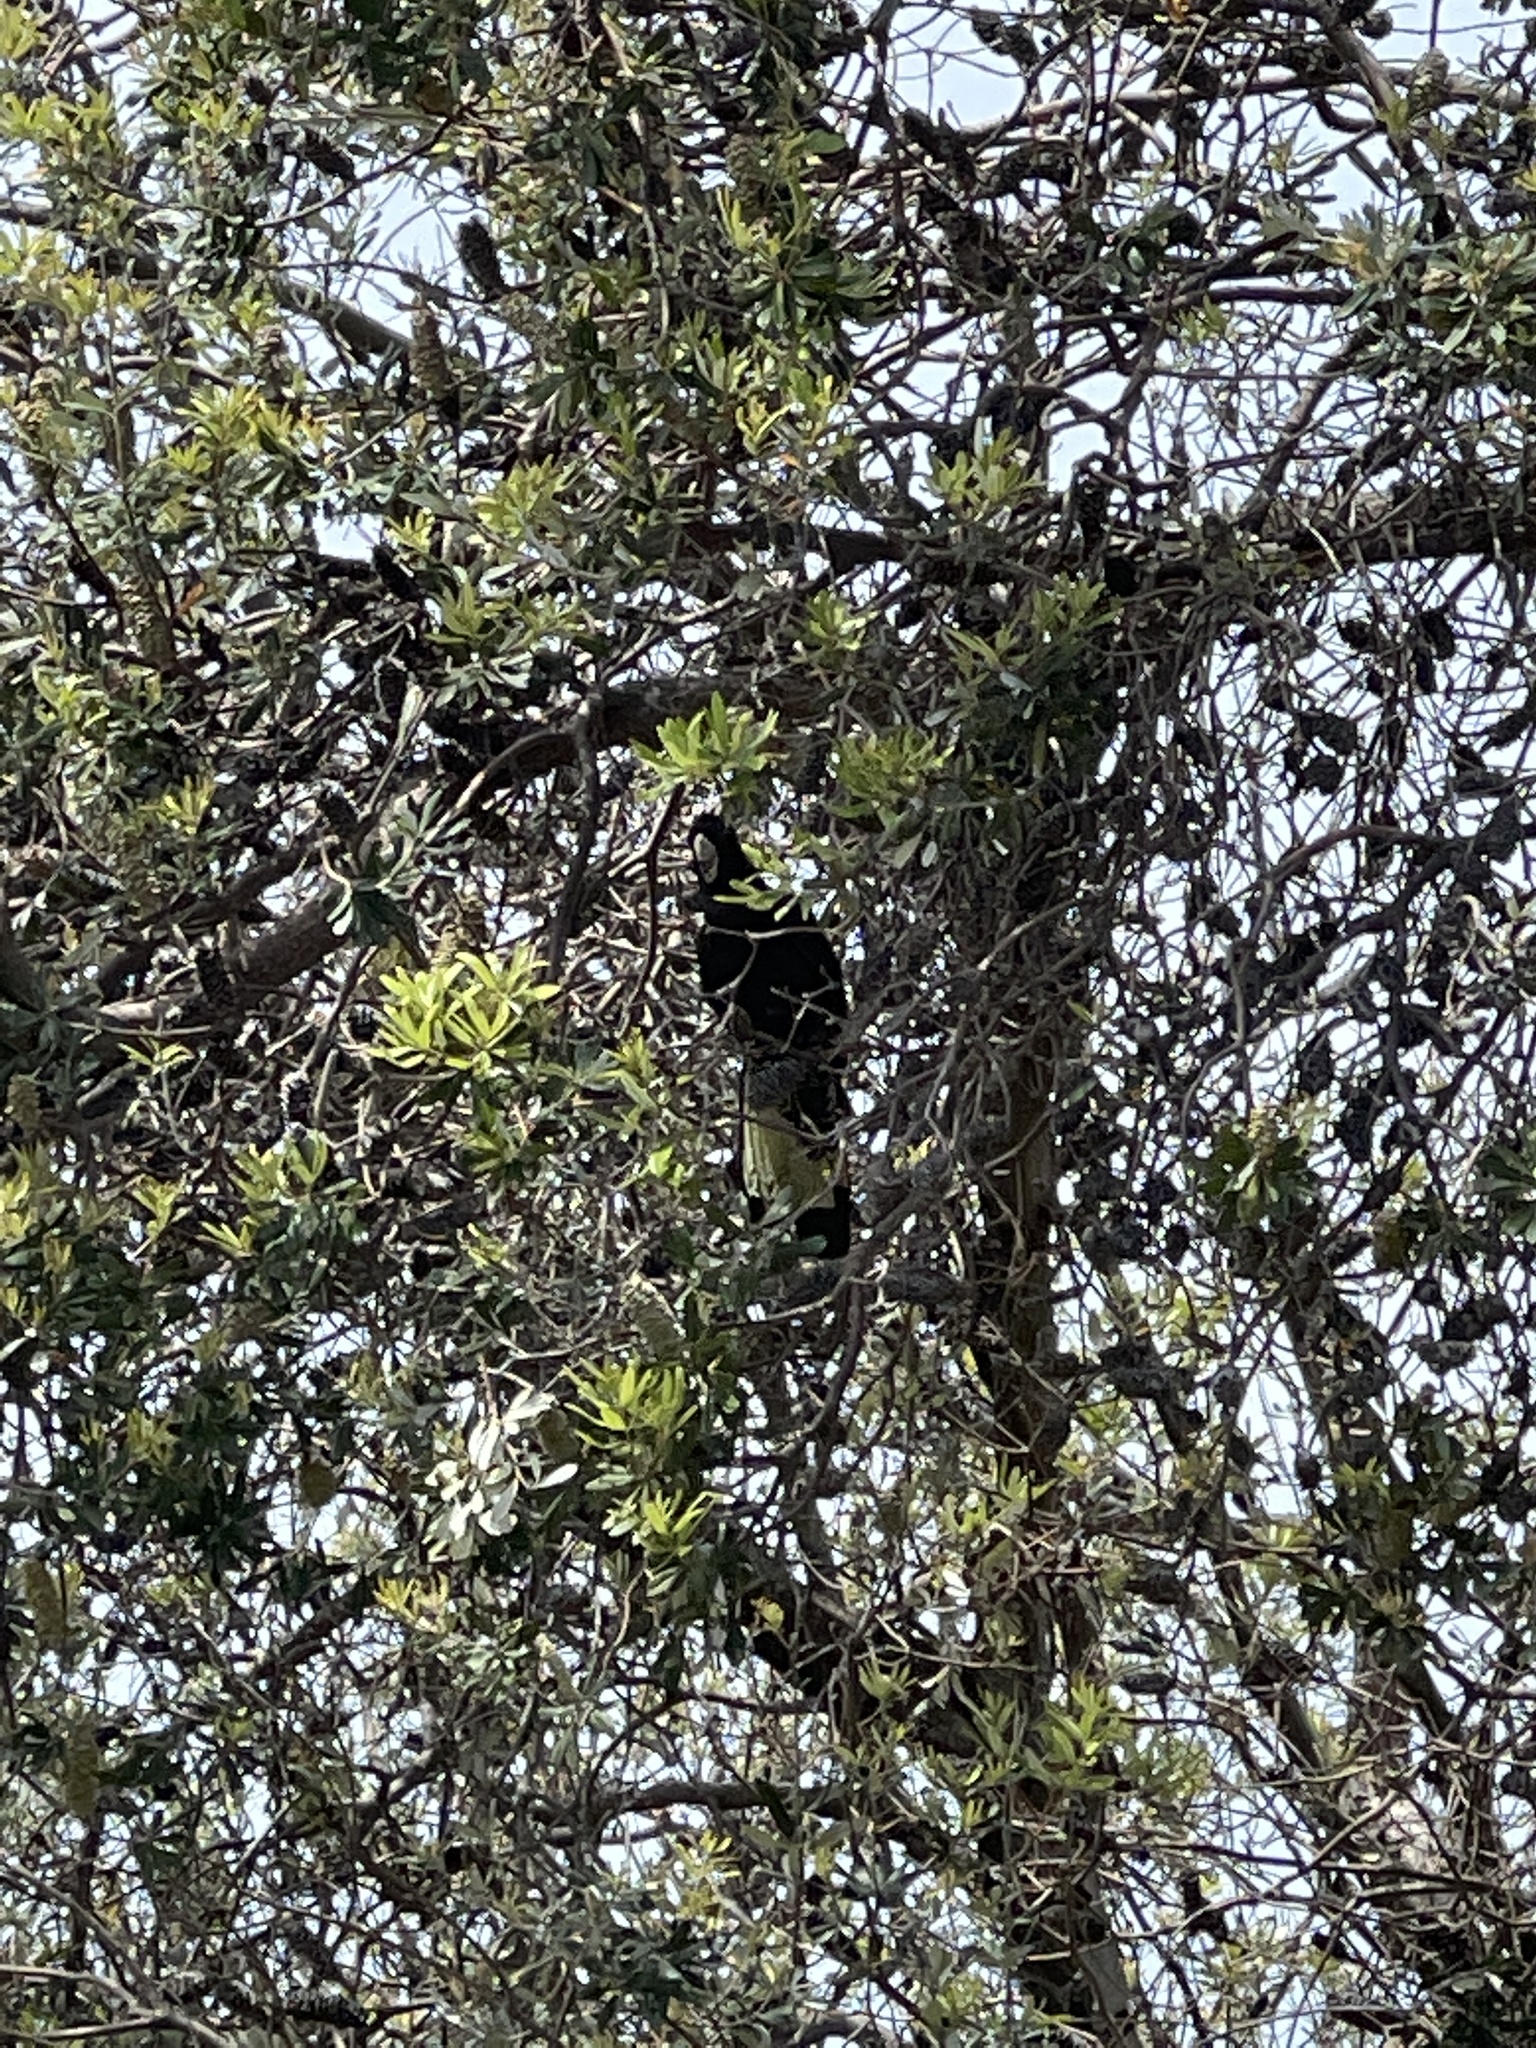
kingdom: Animalia
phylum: Chordata
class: Aves
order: Psittaciformes
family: Cacatuidae
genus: Zanda
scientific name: Zanda funerea
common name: Yellow-tailed black-cockatoo
